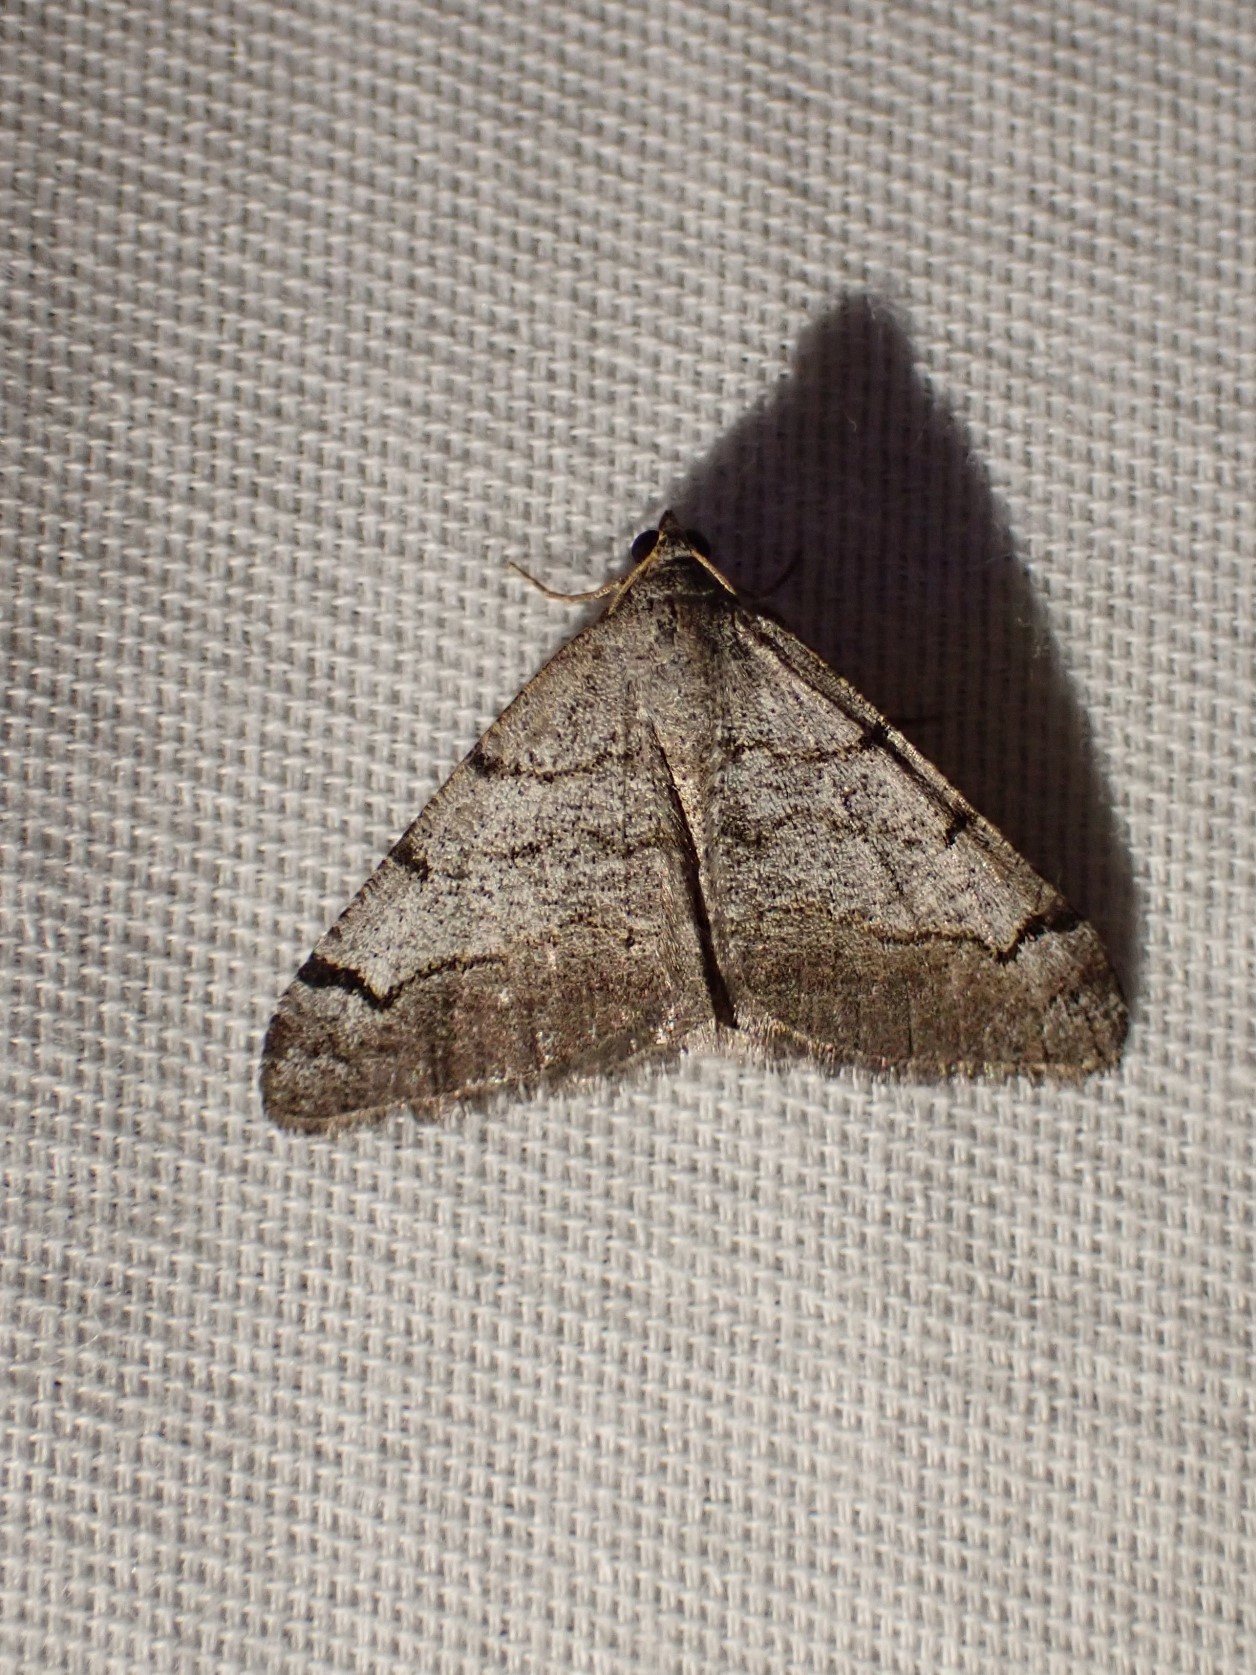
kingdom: Animalia
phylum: Arthropoda
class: Insecta
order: Lepidoptera
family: Geometridae
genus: Digrammia
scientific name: Digrammia triviata
